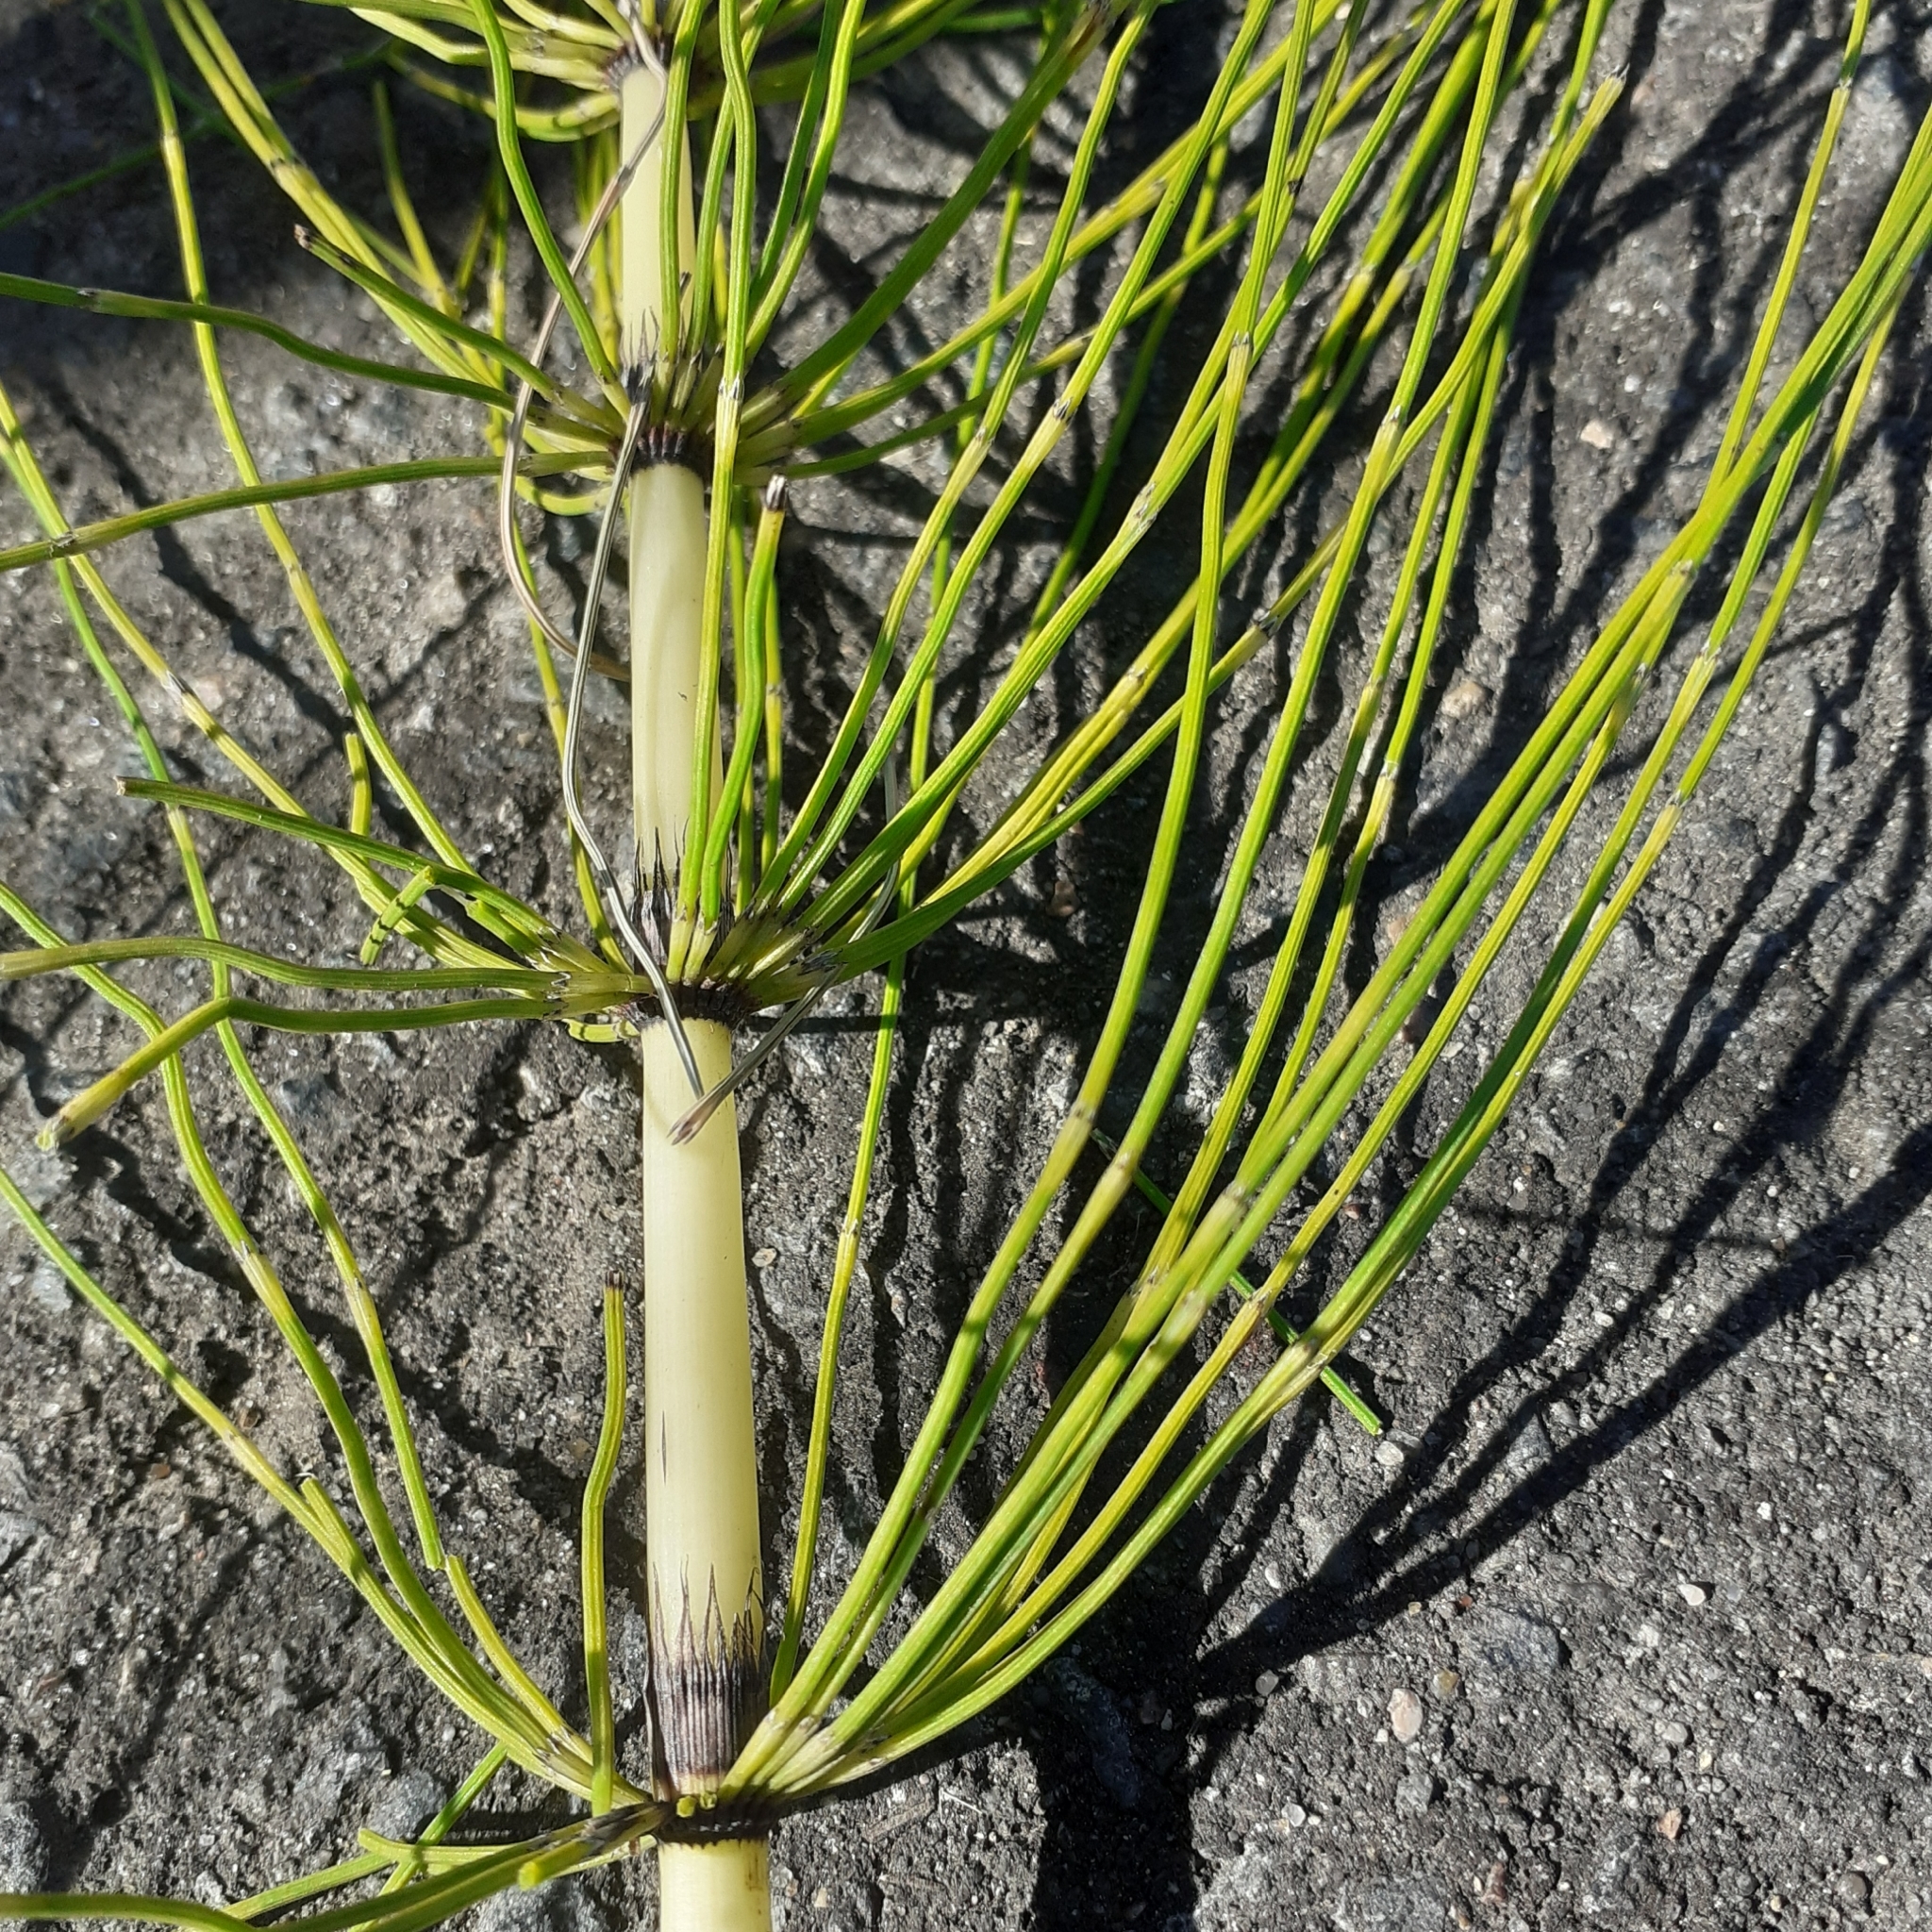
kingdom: Plantae
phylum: Tracheophyta
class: Polypodiopsida
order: Equisetales
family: Equisetaceae
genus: Equisetum
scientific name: Equisetum telmateia
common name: Great horsetail
